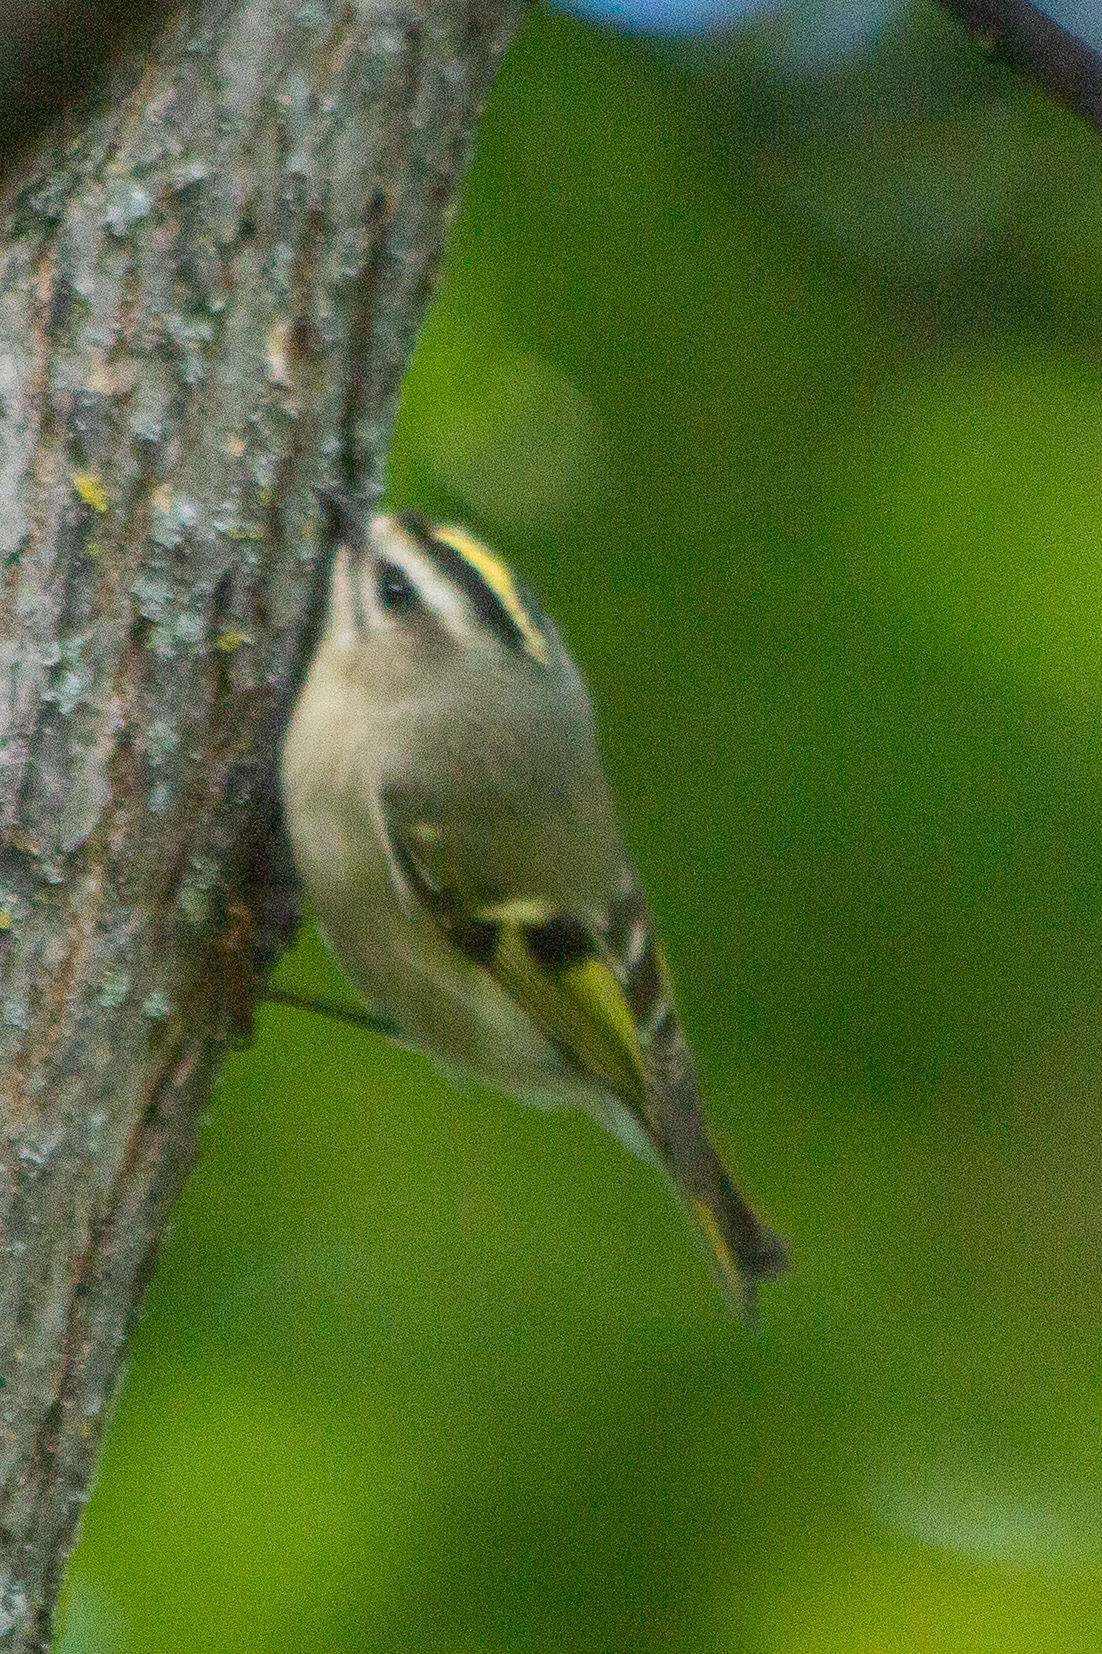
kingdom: Animalia
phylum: Chordata
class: Aves
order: Passeriformes
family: Regulidae
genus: Regulus
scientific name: Regulus satrapa
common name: Golden-crowned kinglet
